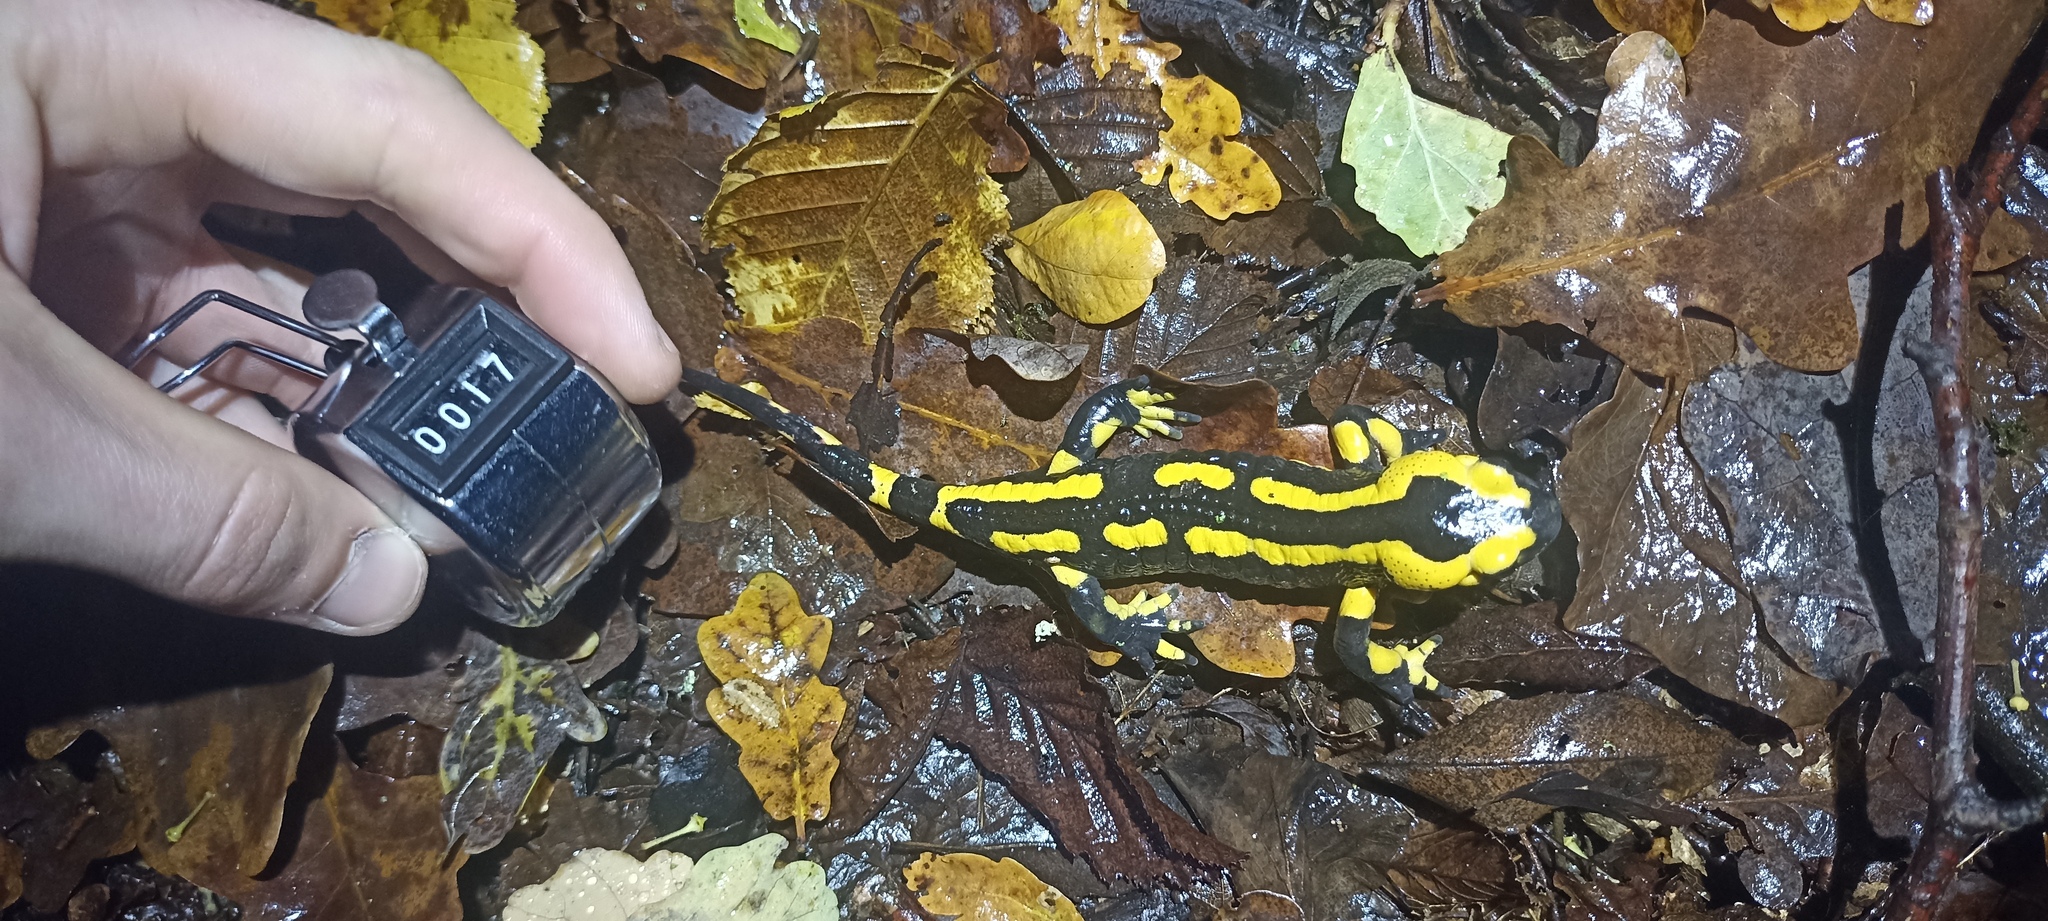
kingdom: Animalia
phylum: Chordata
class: Amphibia
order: Caudata
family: Salamandridae
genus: Salamandra
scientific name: Salamandra salamandra
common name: Fire salamander
